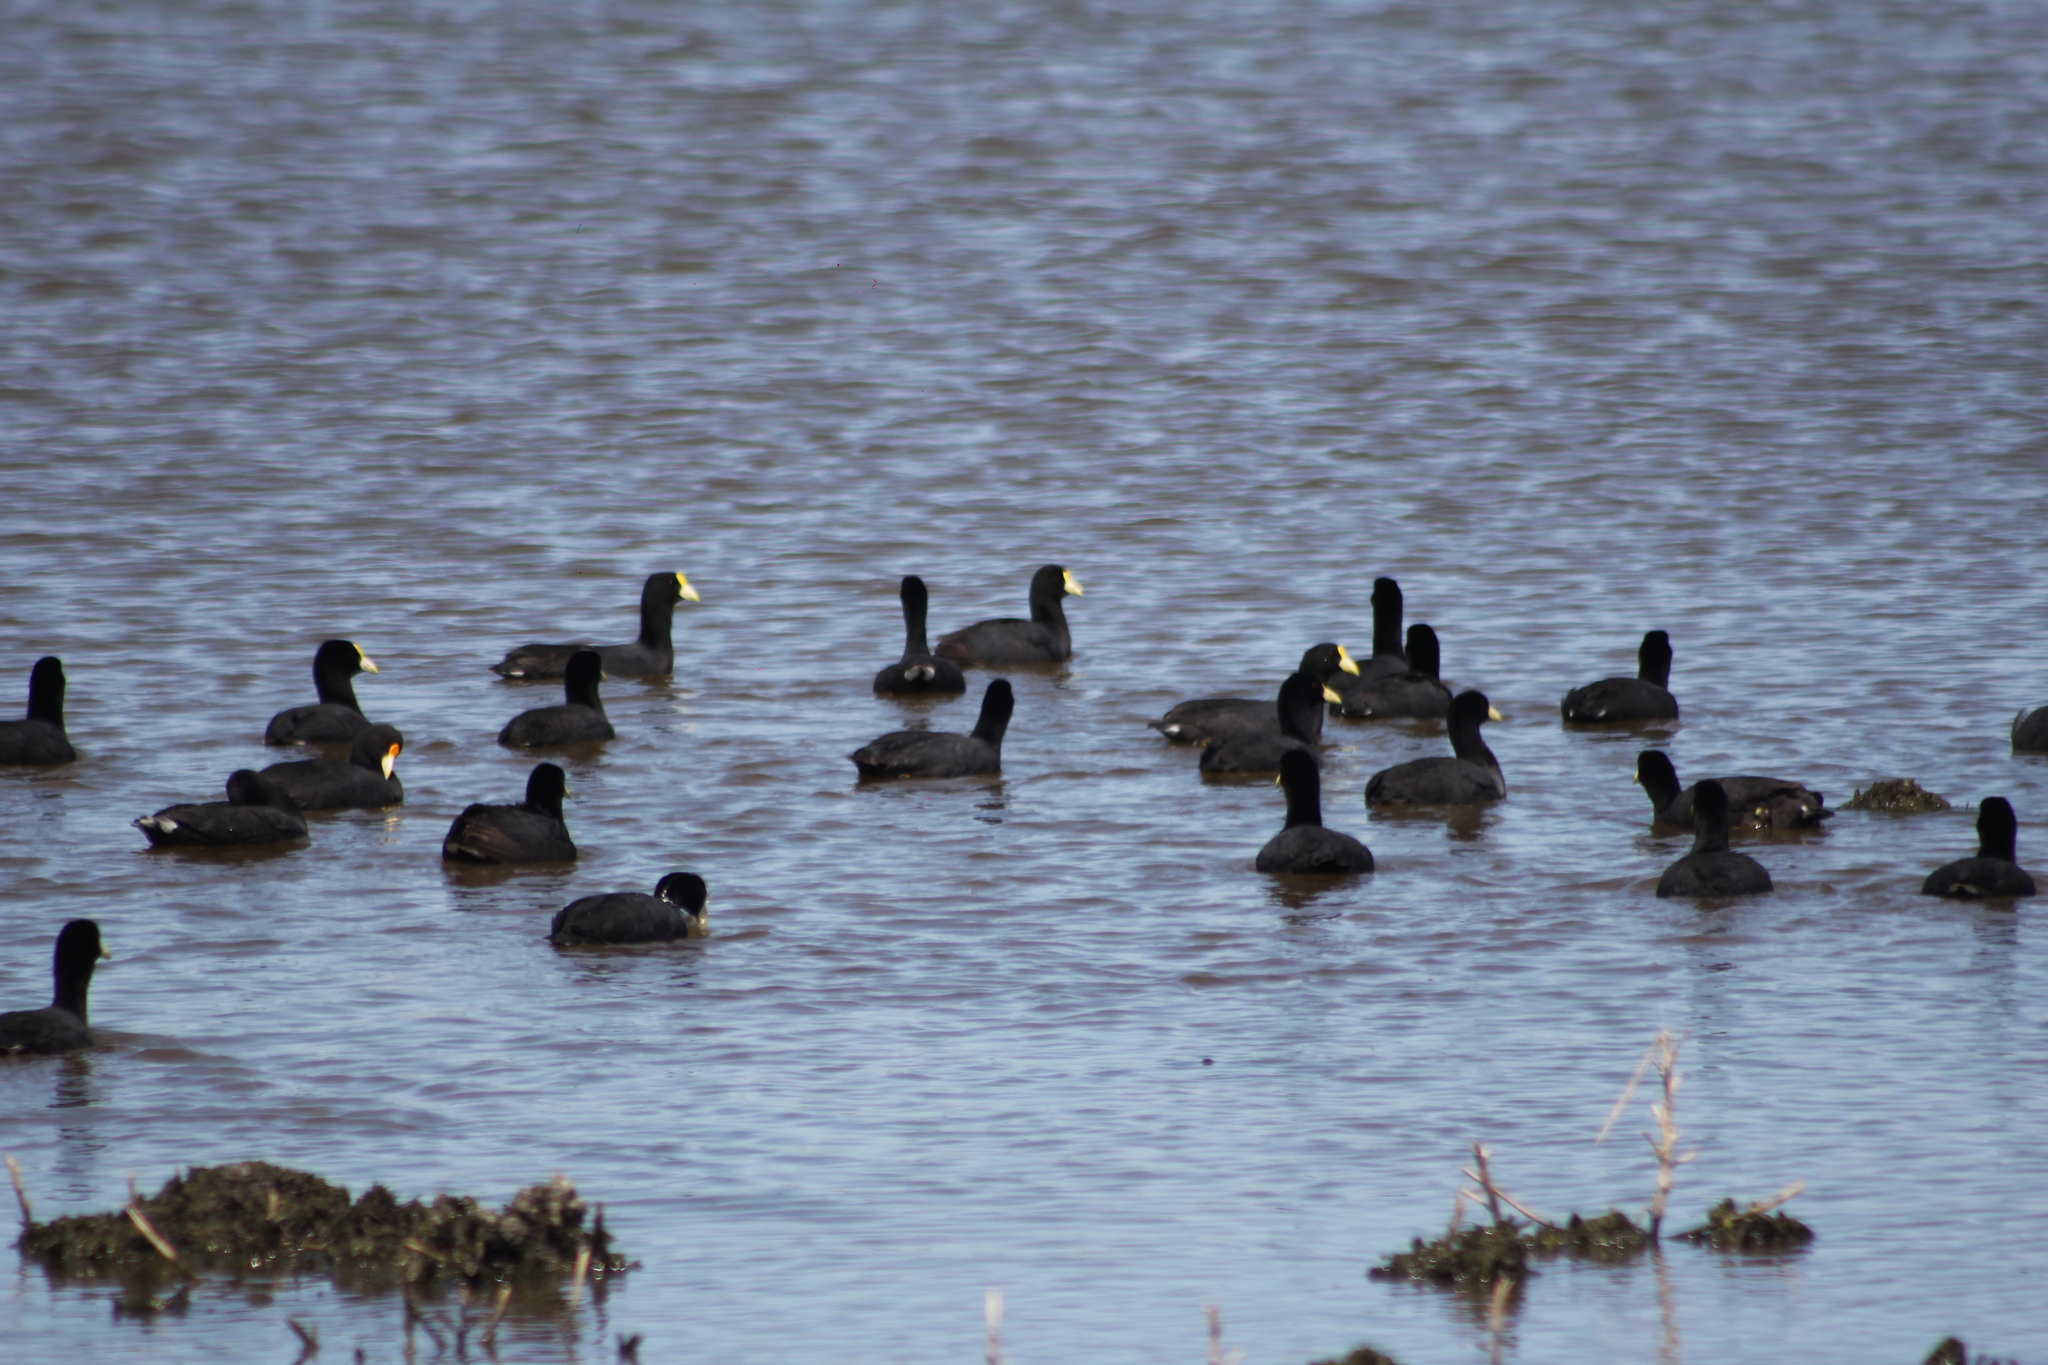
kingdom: Animalia
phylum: Chordata
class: Aves
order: Gruiformes
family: Rallidae
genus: Fulica
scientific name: Fulica leucoptera
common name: White-winged coot
